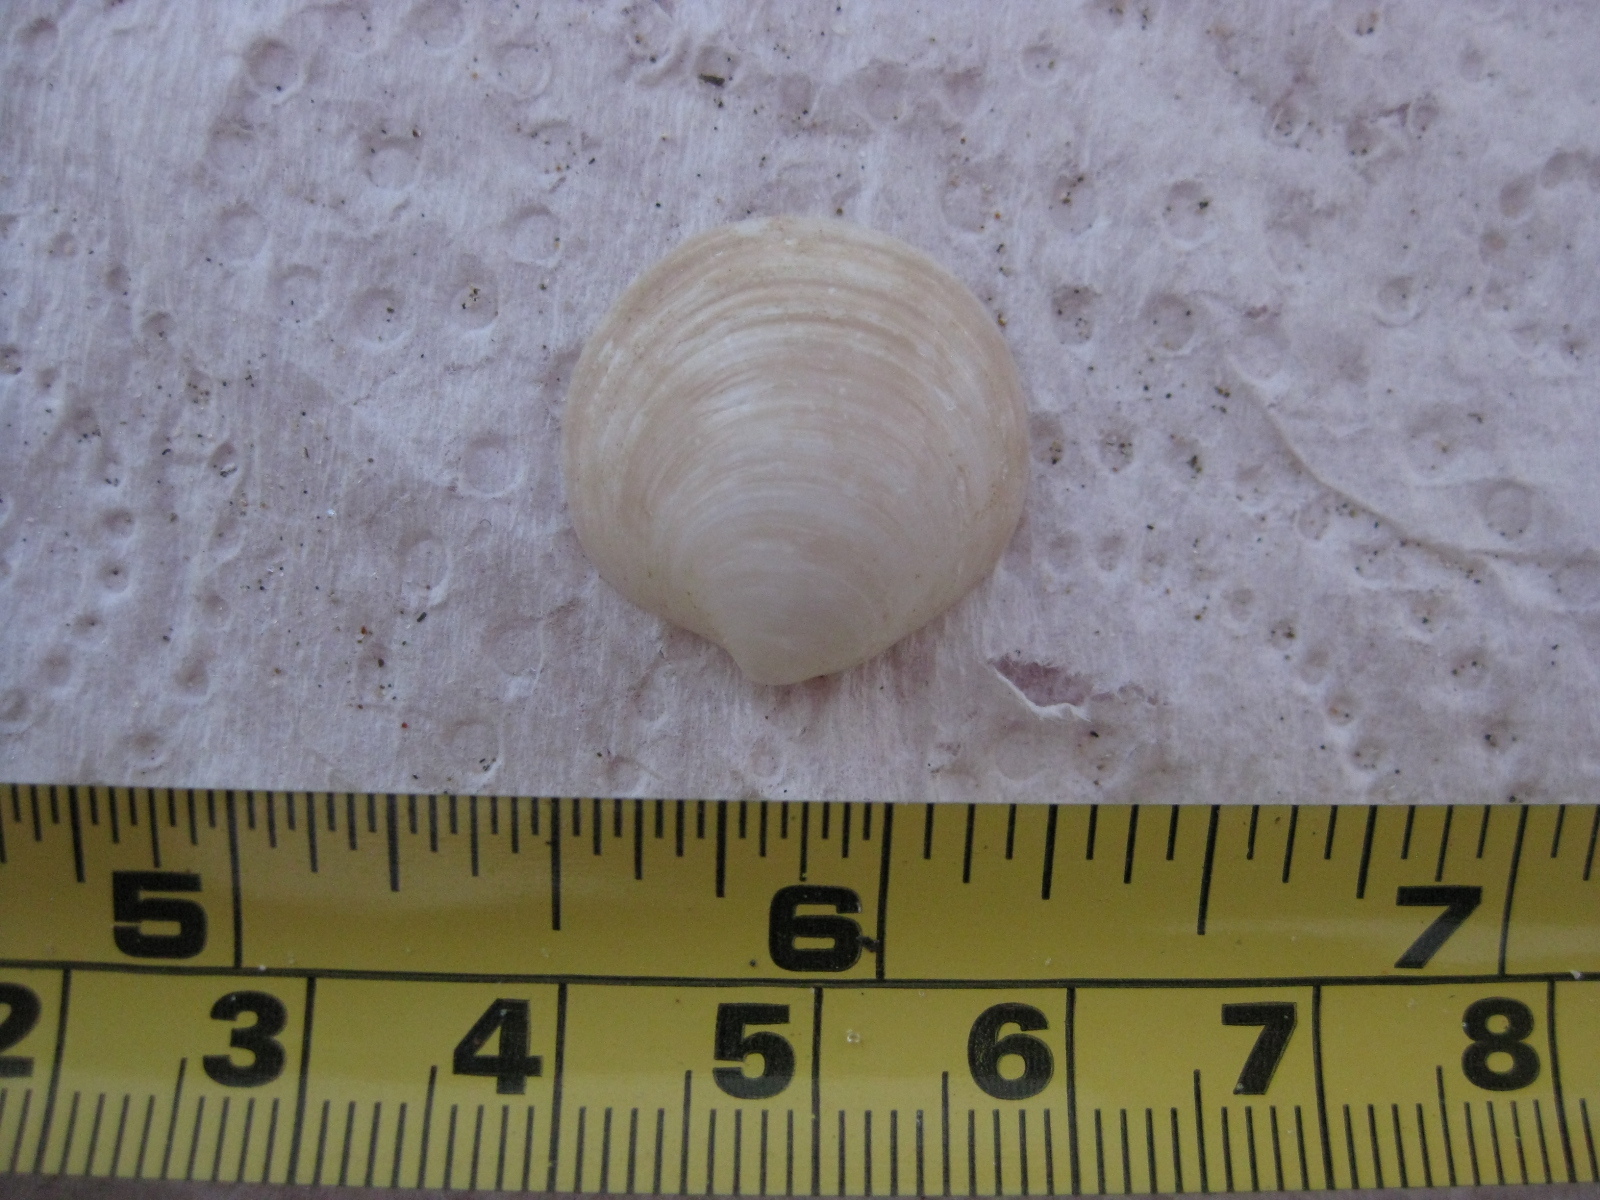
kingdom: Animalia
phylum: Mollusca
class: Bivalvia
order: Venerida
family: Ungulinidae
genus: Zemysia
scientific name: Zemysia zelandica
